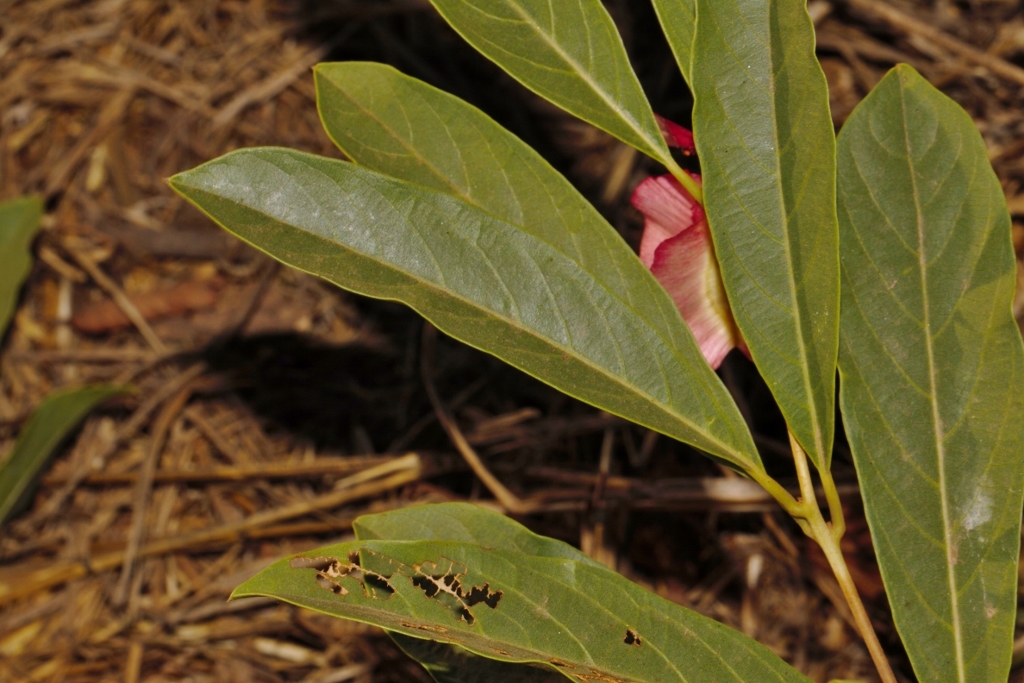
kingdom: Plantae
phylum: Tracheophyta
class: Magnoliopsida
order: Myrtales
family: Combretaceae
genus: Combretum
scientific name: Combretum oatesii
